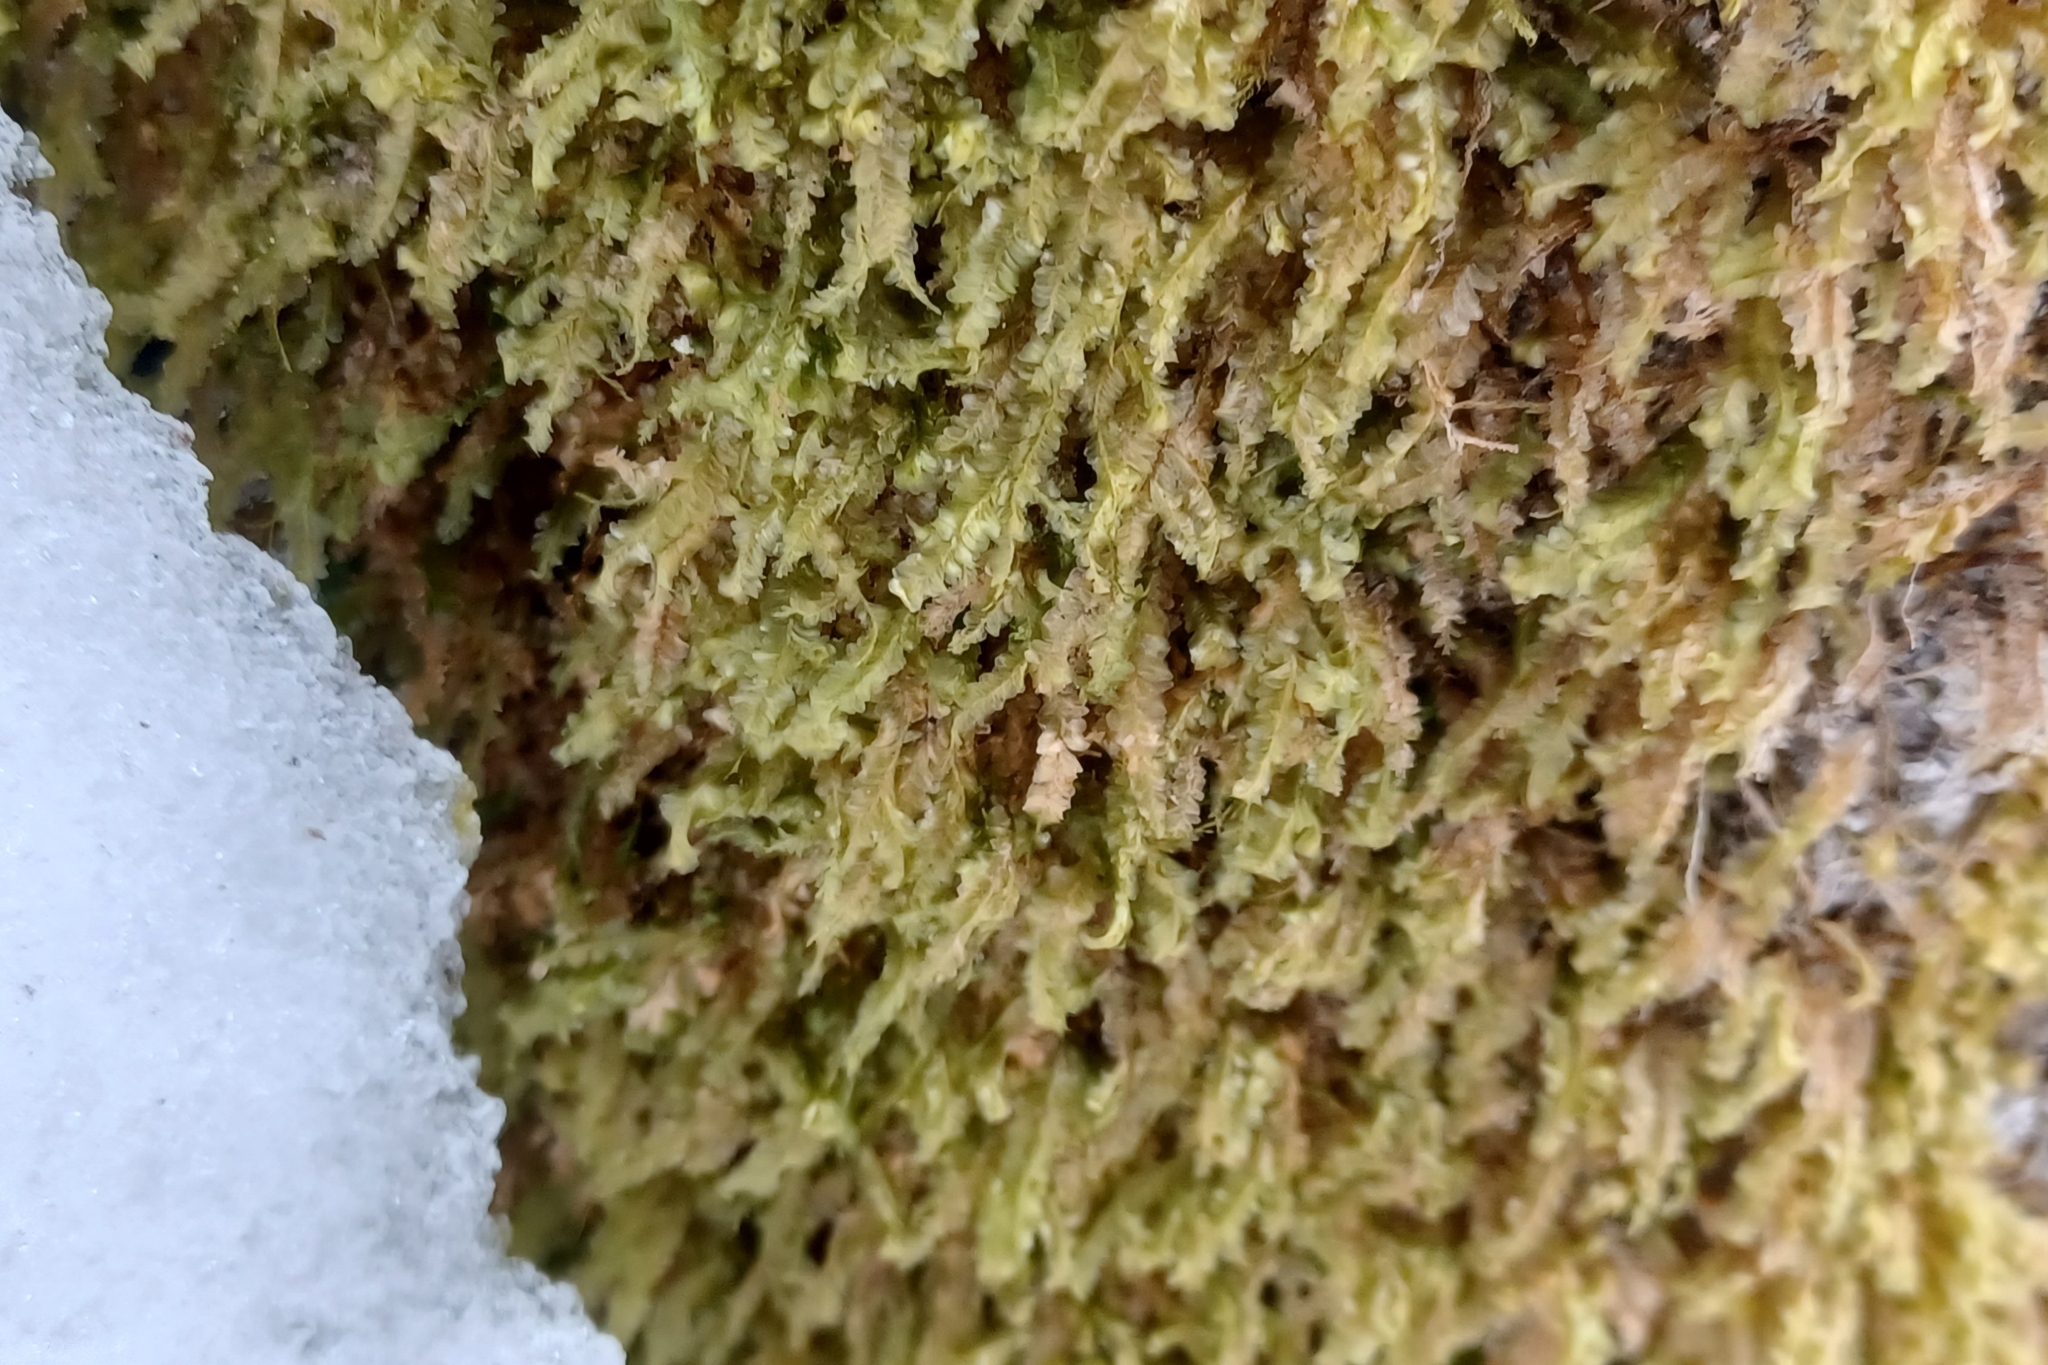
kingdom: Plantae
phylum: Bryophyta
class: Bryopsida
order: Hypnales
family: Neckeraceae
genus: Homalia
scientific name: Homalia trichomanoides
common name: Lime homalia moss
